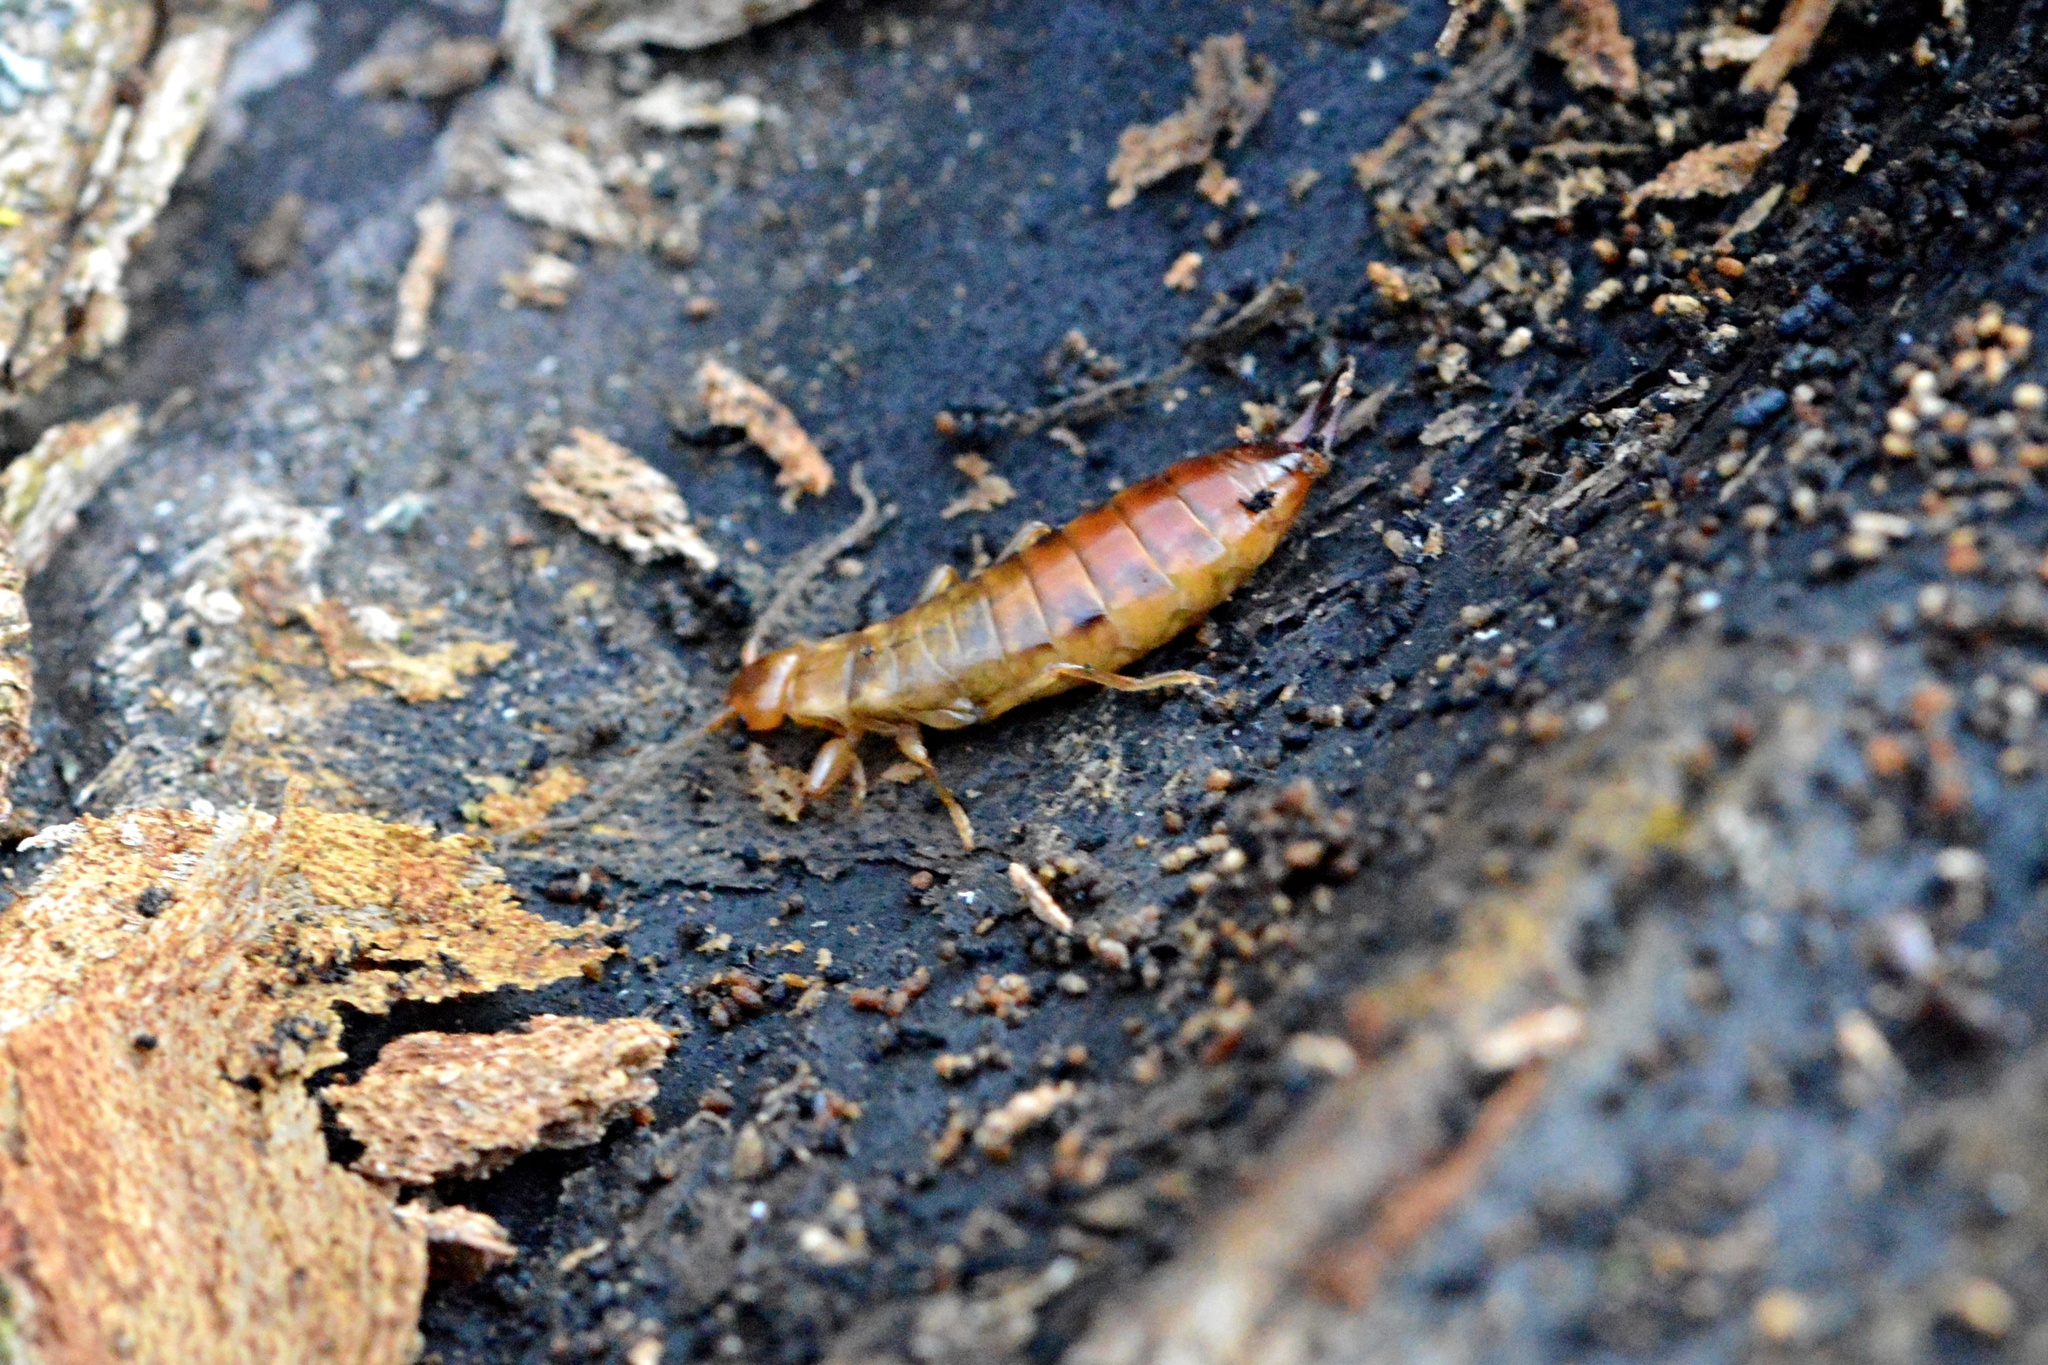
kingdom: Animalia
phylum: Arthropoda
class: Insecta
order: Dermaptera
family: Forficulidae
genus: Chelidurella
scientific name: Chelidurella acanthopygia
